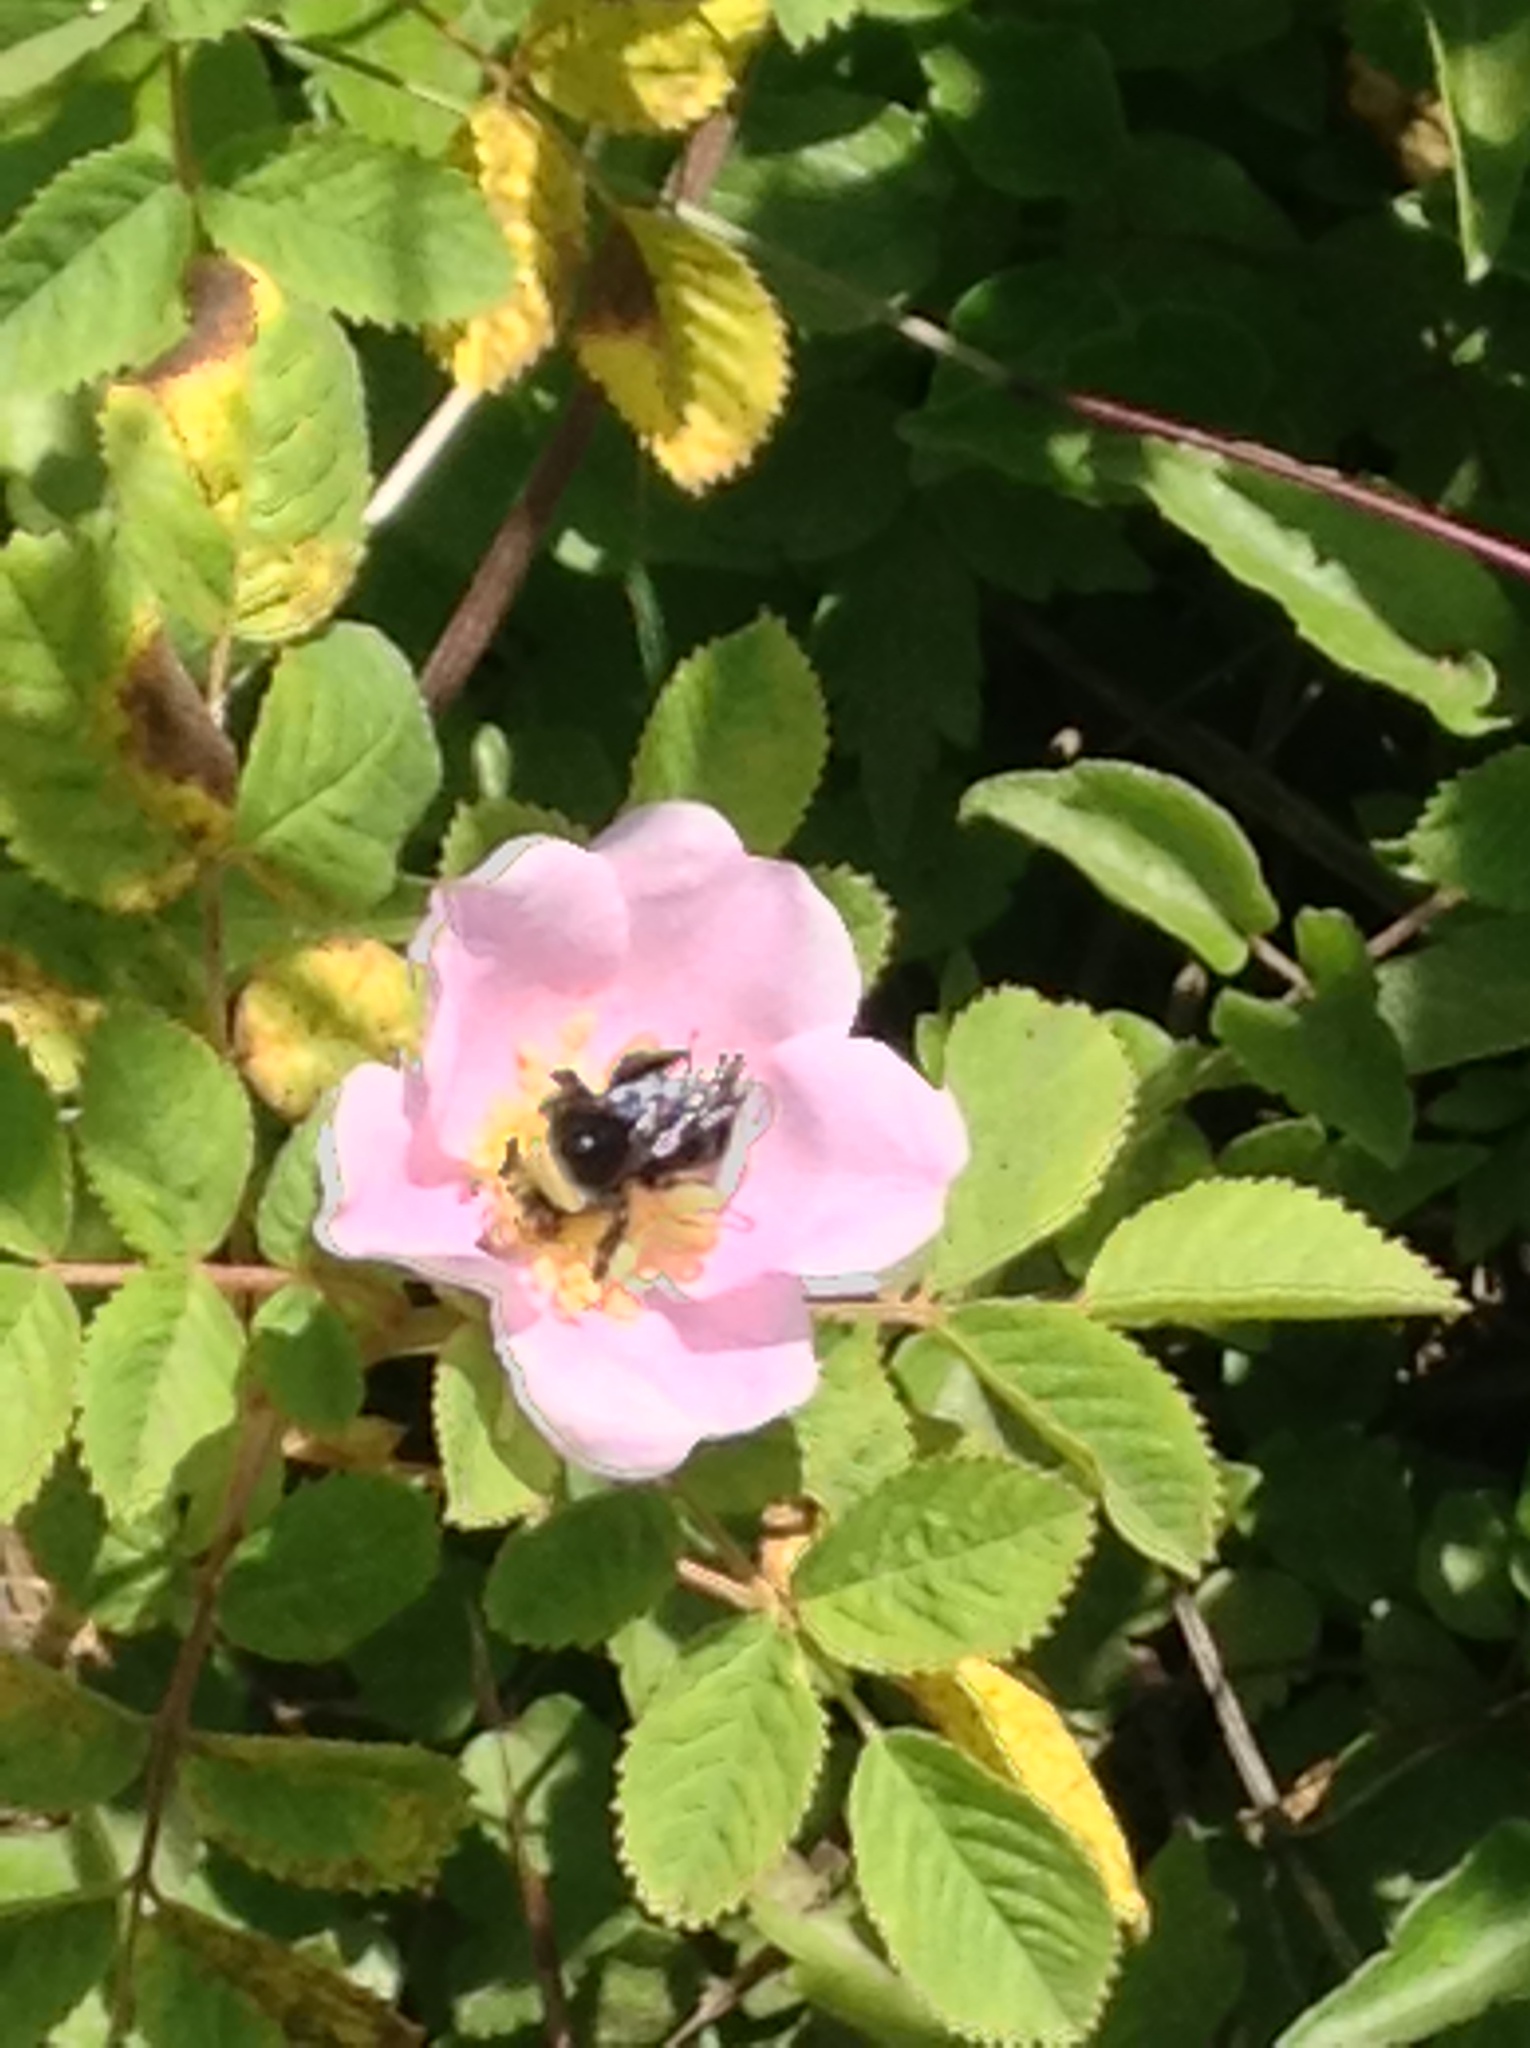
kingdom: Animalia
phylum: Arthropoda
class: Insecta
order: Hymenoptera
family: Apidae
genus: Pyrobombus
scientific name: Pyrobombus
